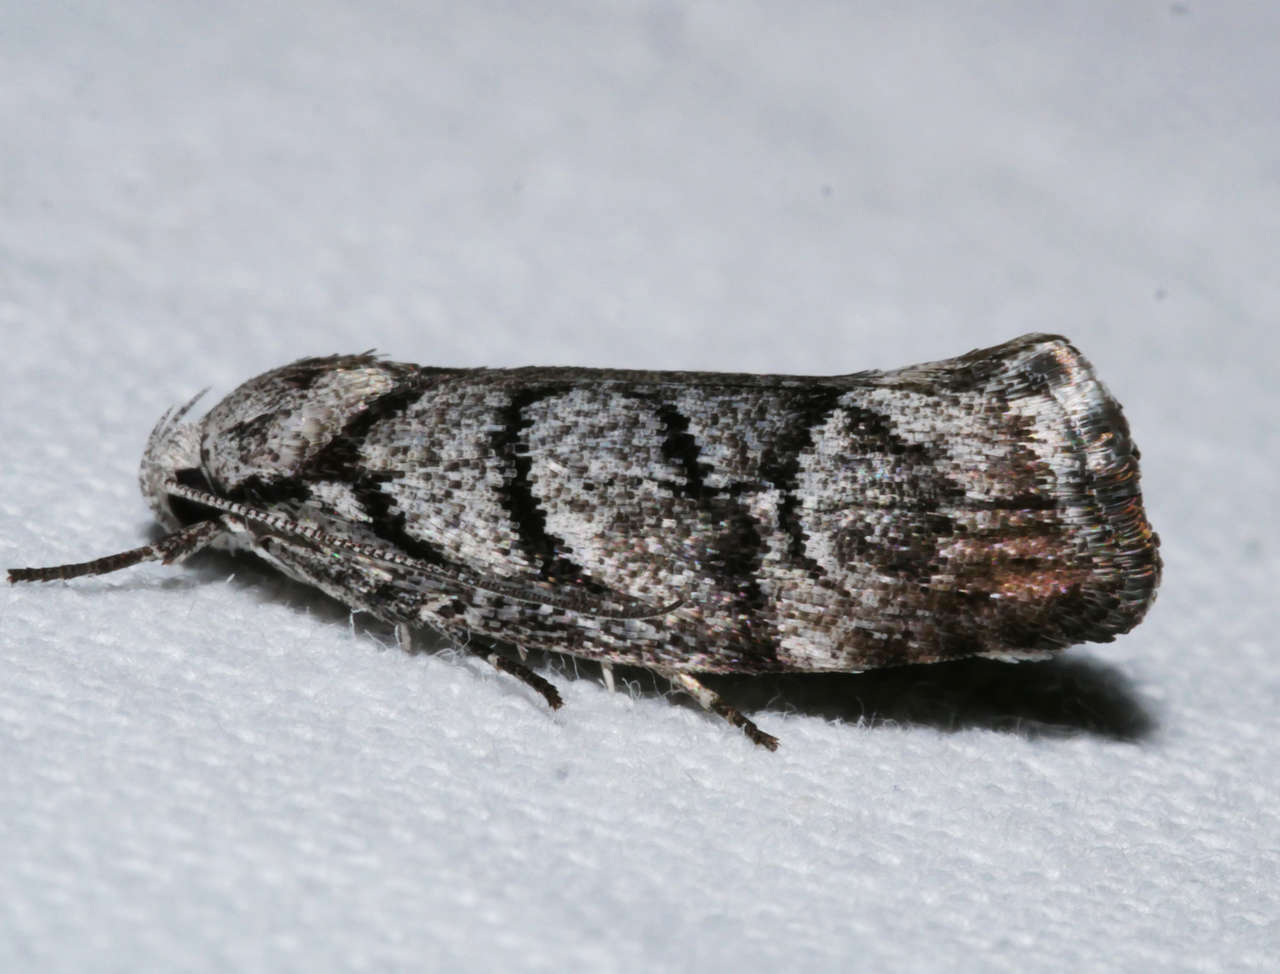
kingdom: Animalia
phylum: Arthropoda
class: Insecta
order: Lepidoptera
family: Xyloryctidae
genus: Lichenaula
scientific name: Lichenaula onychodes
